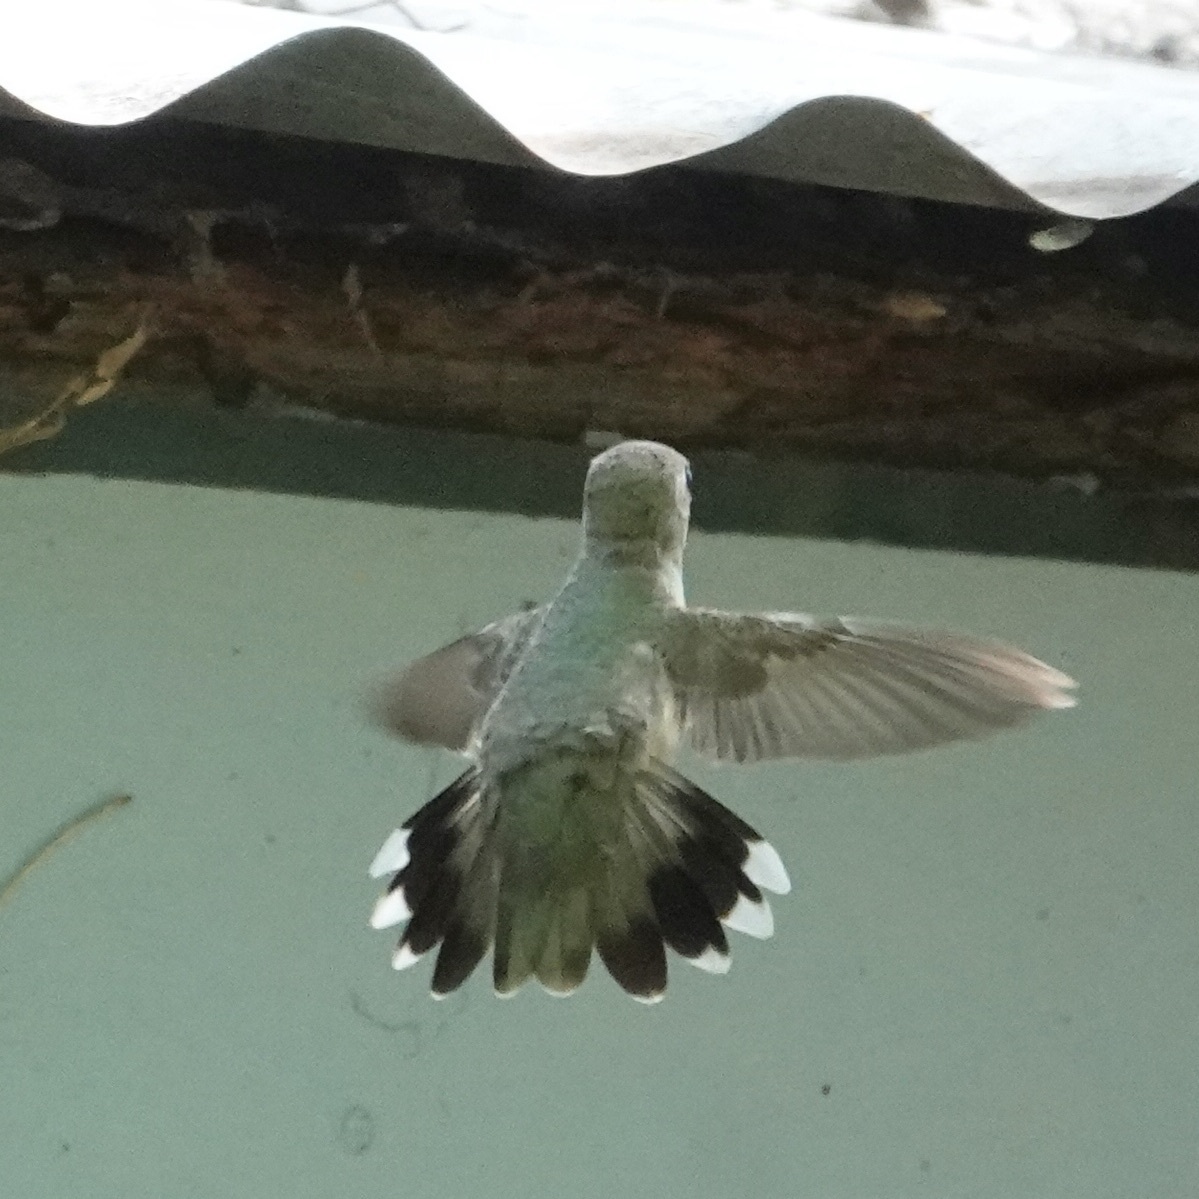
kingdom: Animalia
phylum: Chordata
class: Aves
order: Apodiformes
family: Trochilidae
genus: Archilochus
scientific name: Archilochus alexandri
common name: Black-chinned hummingbird
